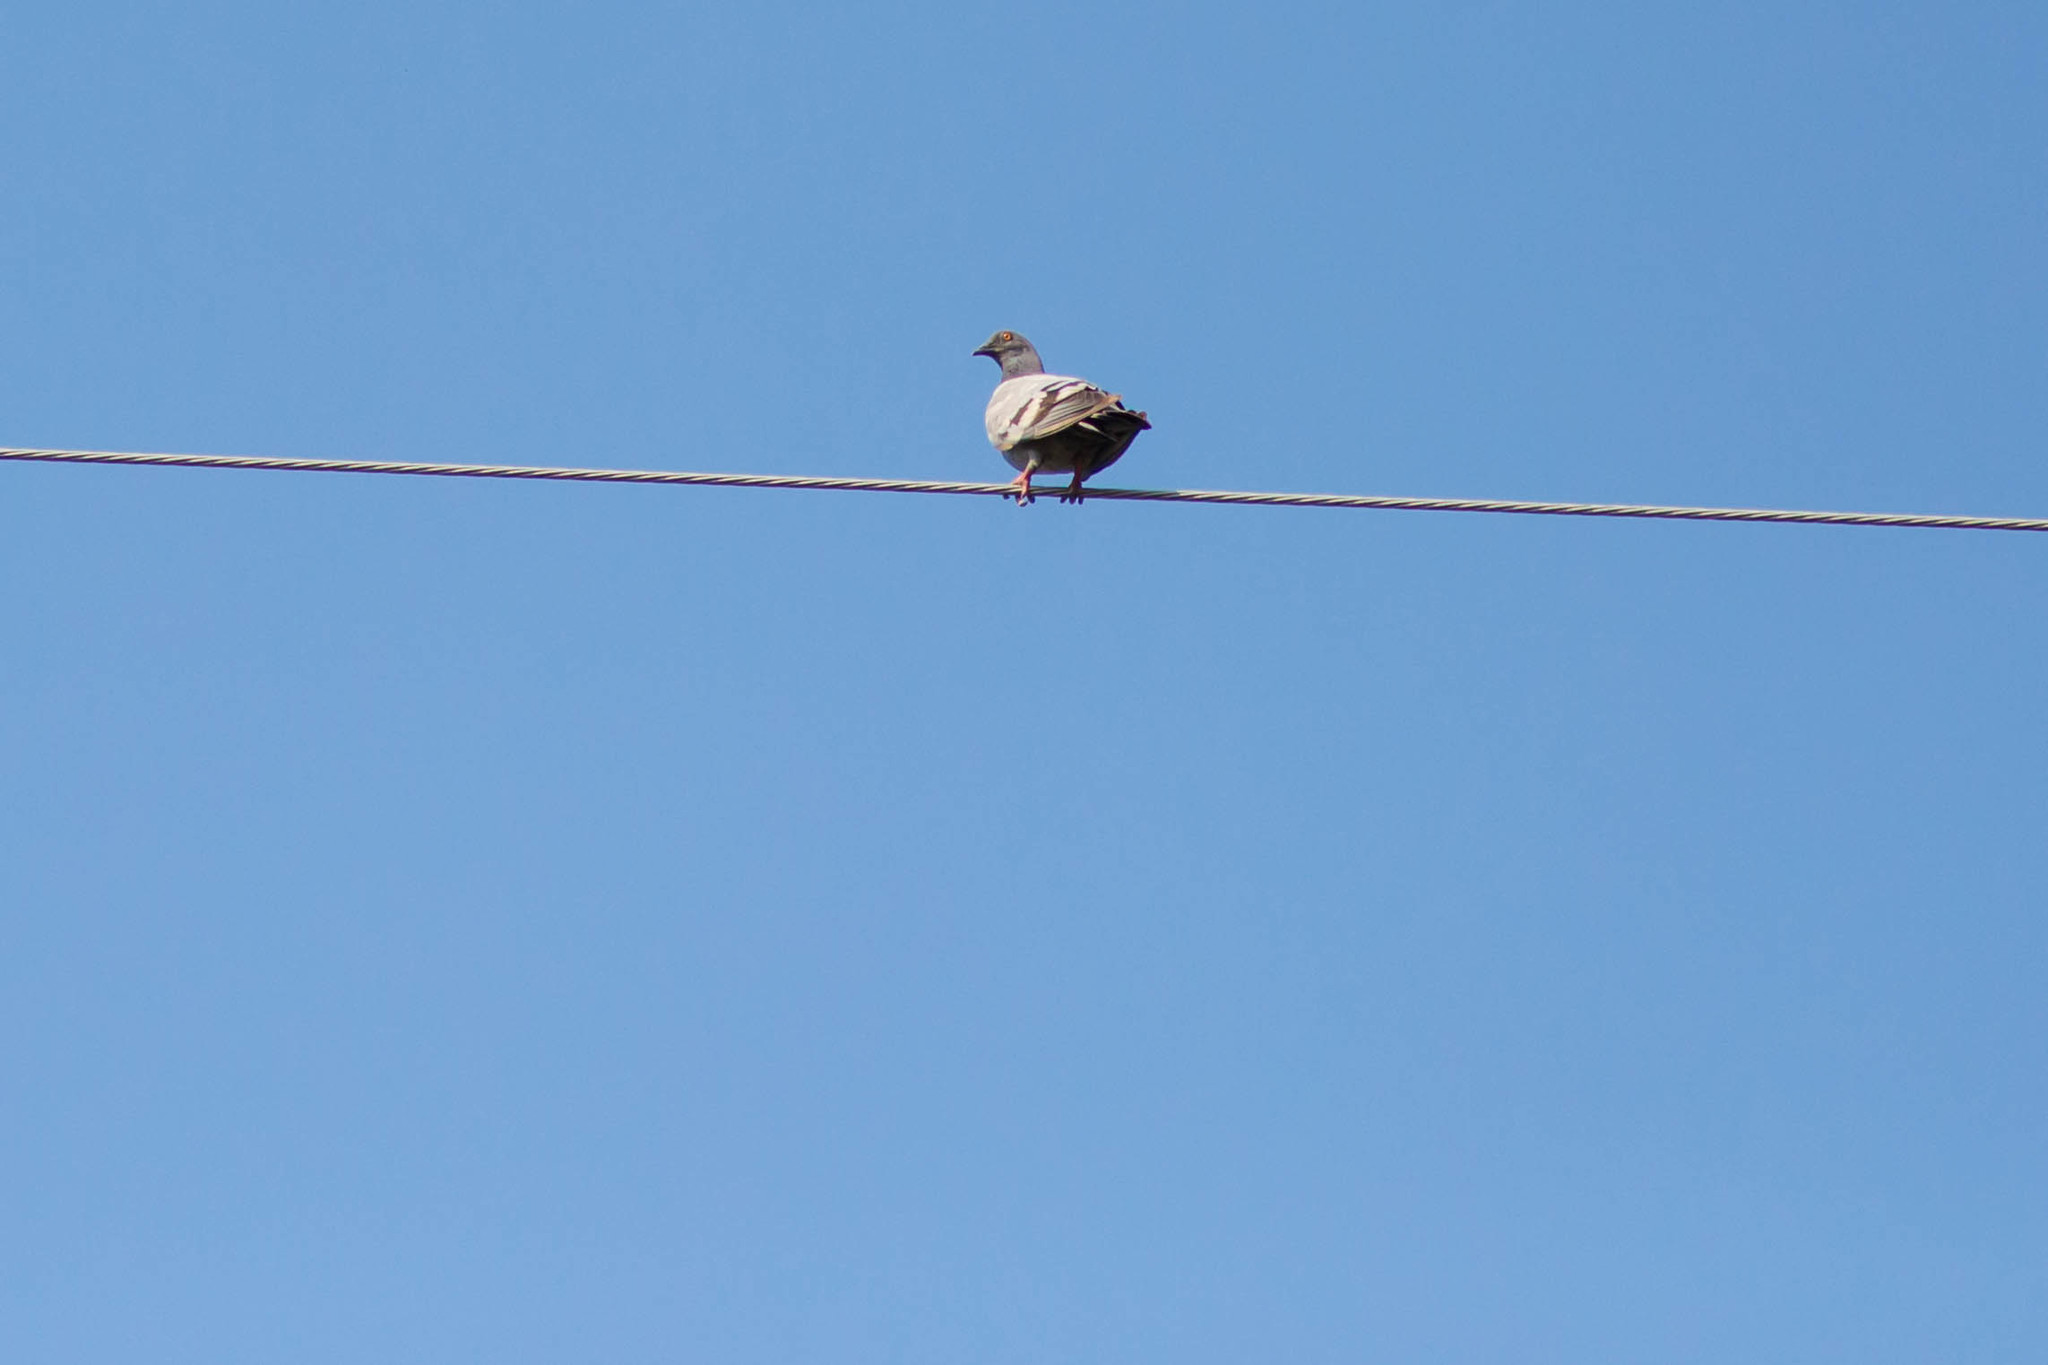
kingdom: Animalia
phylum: Chordata
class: Aves
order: Columbiformes
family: Columbidae
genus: Columba
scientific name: Columba livia
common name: Rock pigeon
